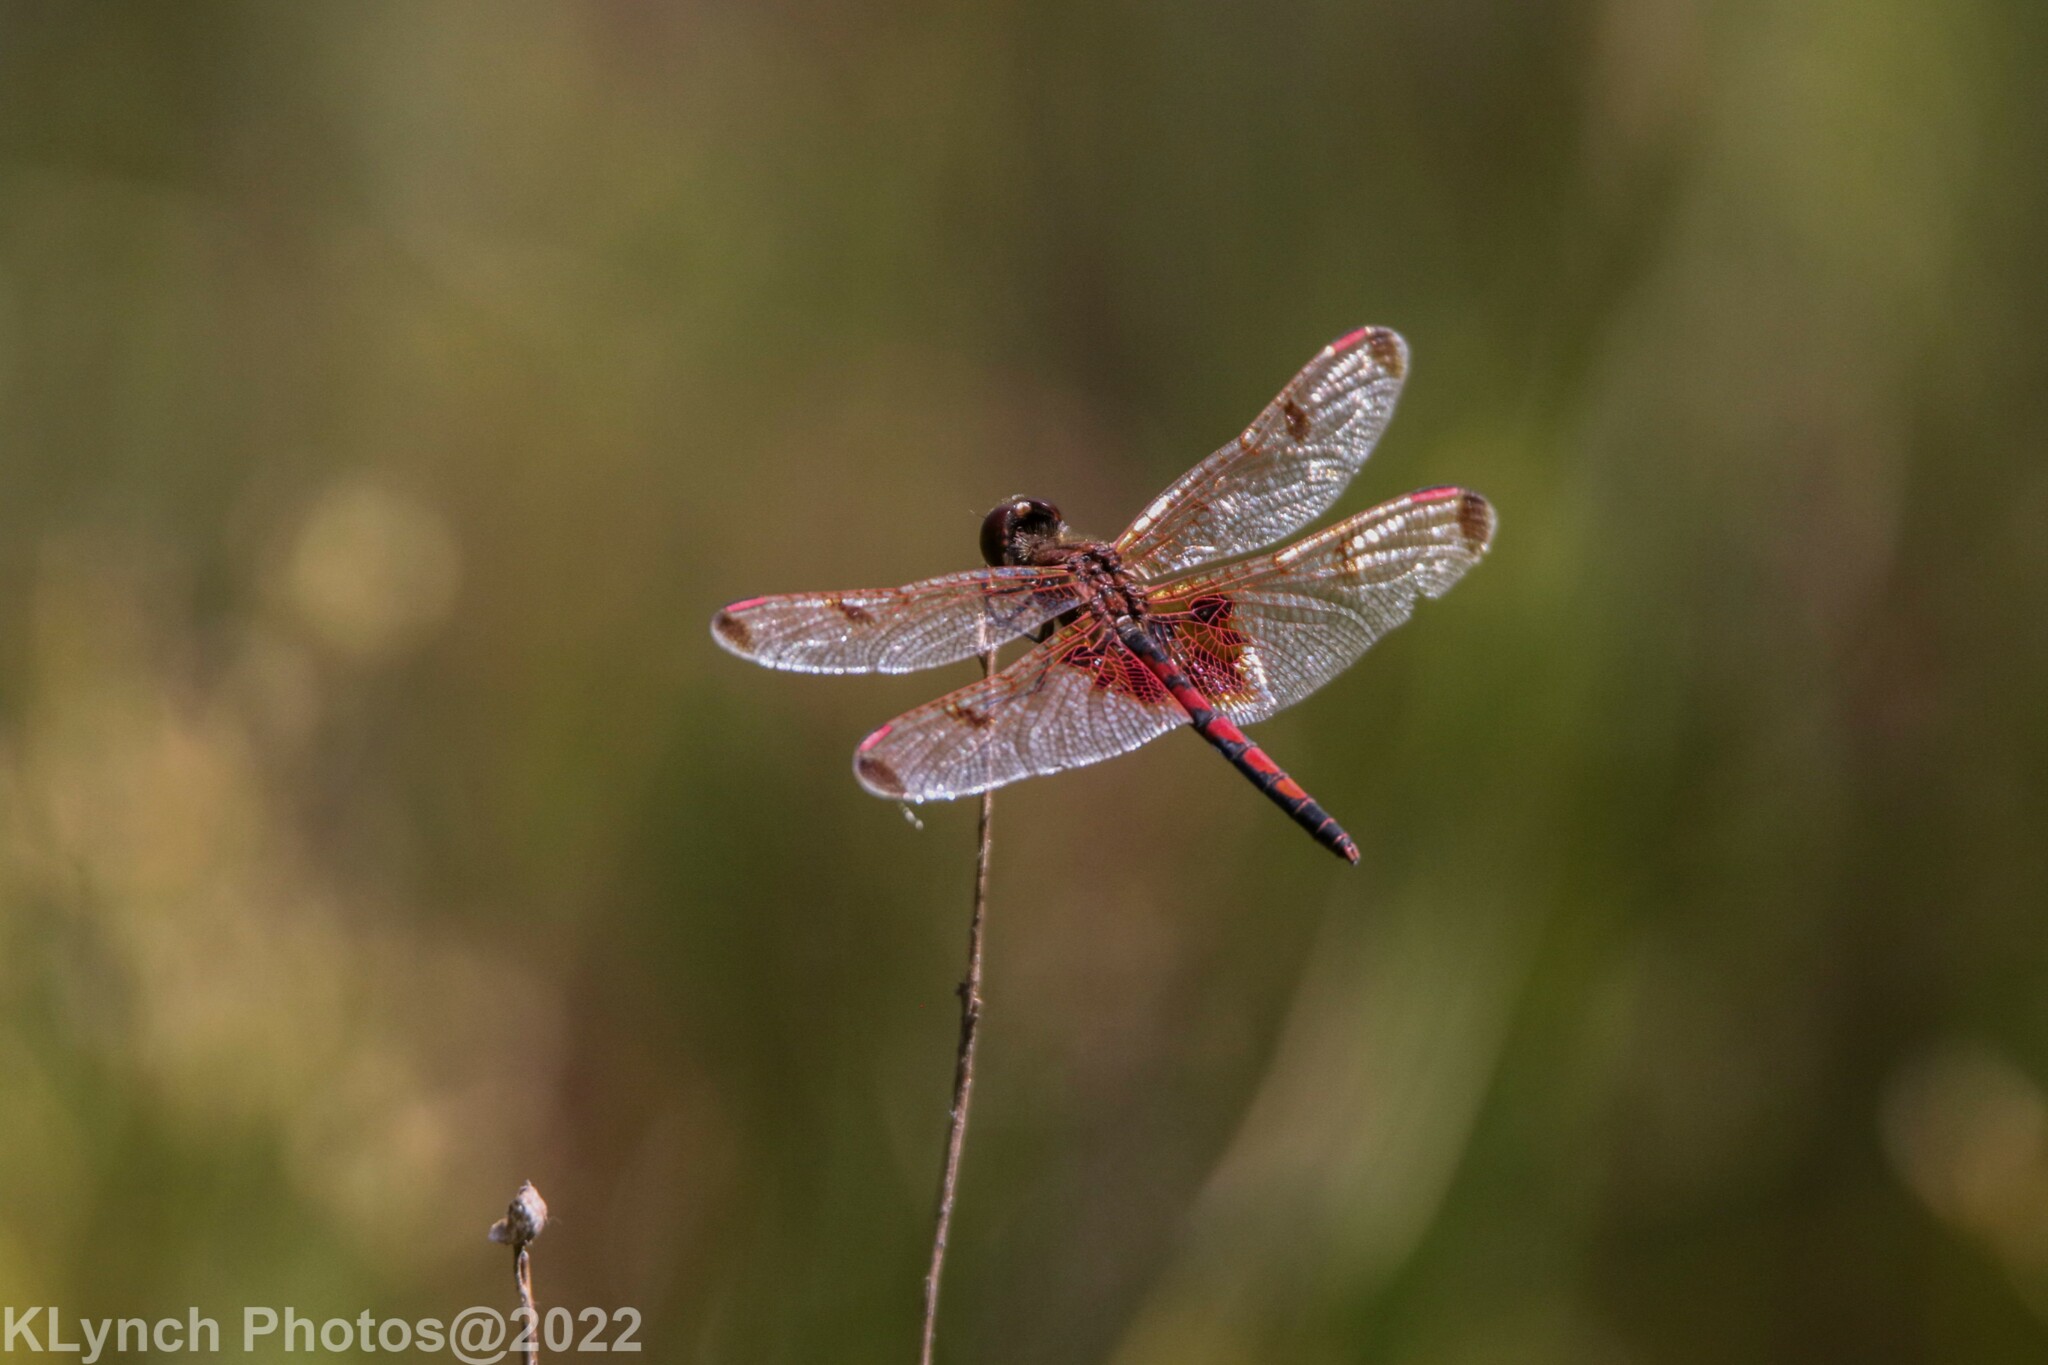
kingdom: Animalia
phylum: Arthropoda
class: Insecta
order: Odonata
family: Libellulidae
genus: Celithemis
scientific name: Celithemis elisa
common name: Calico pennant
